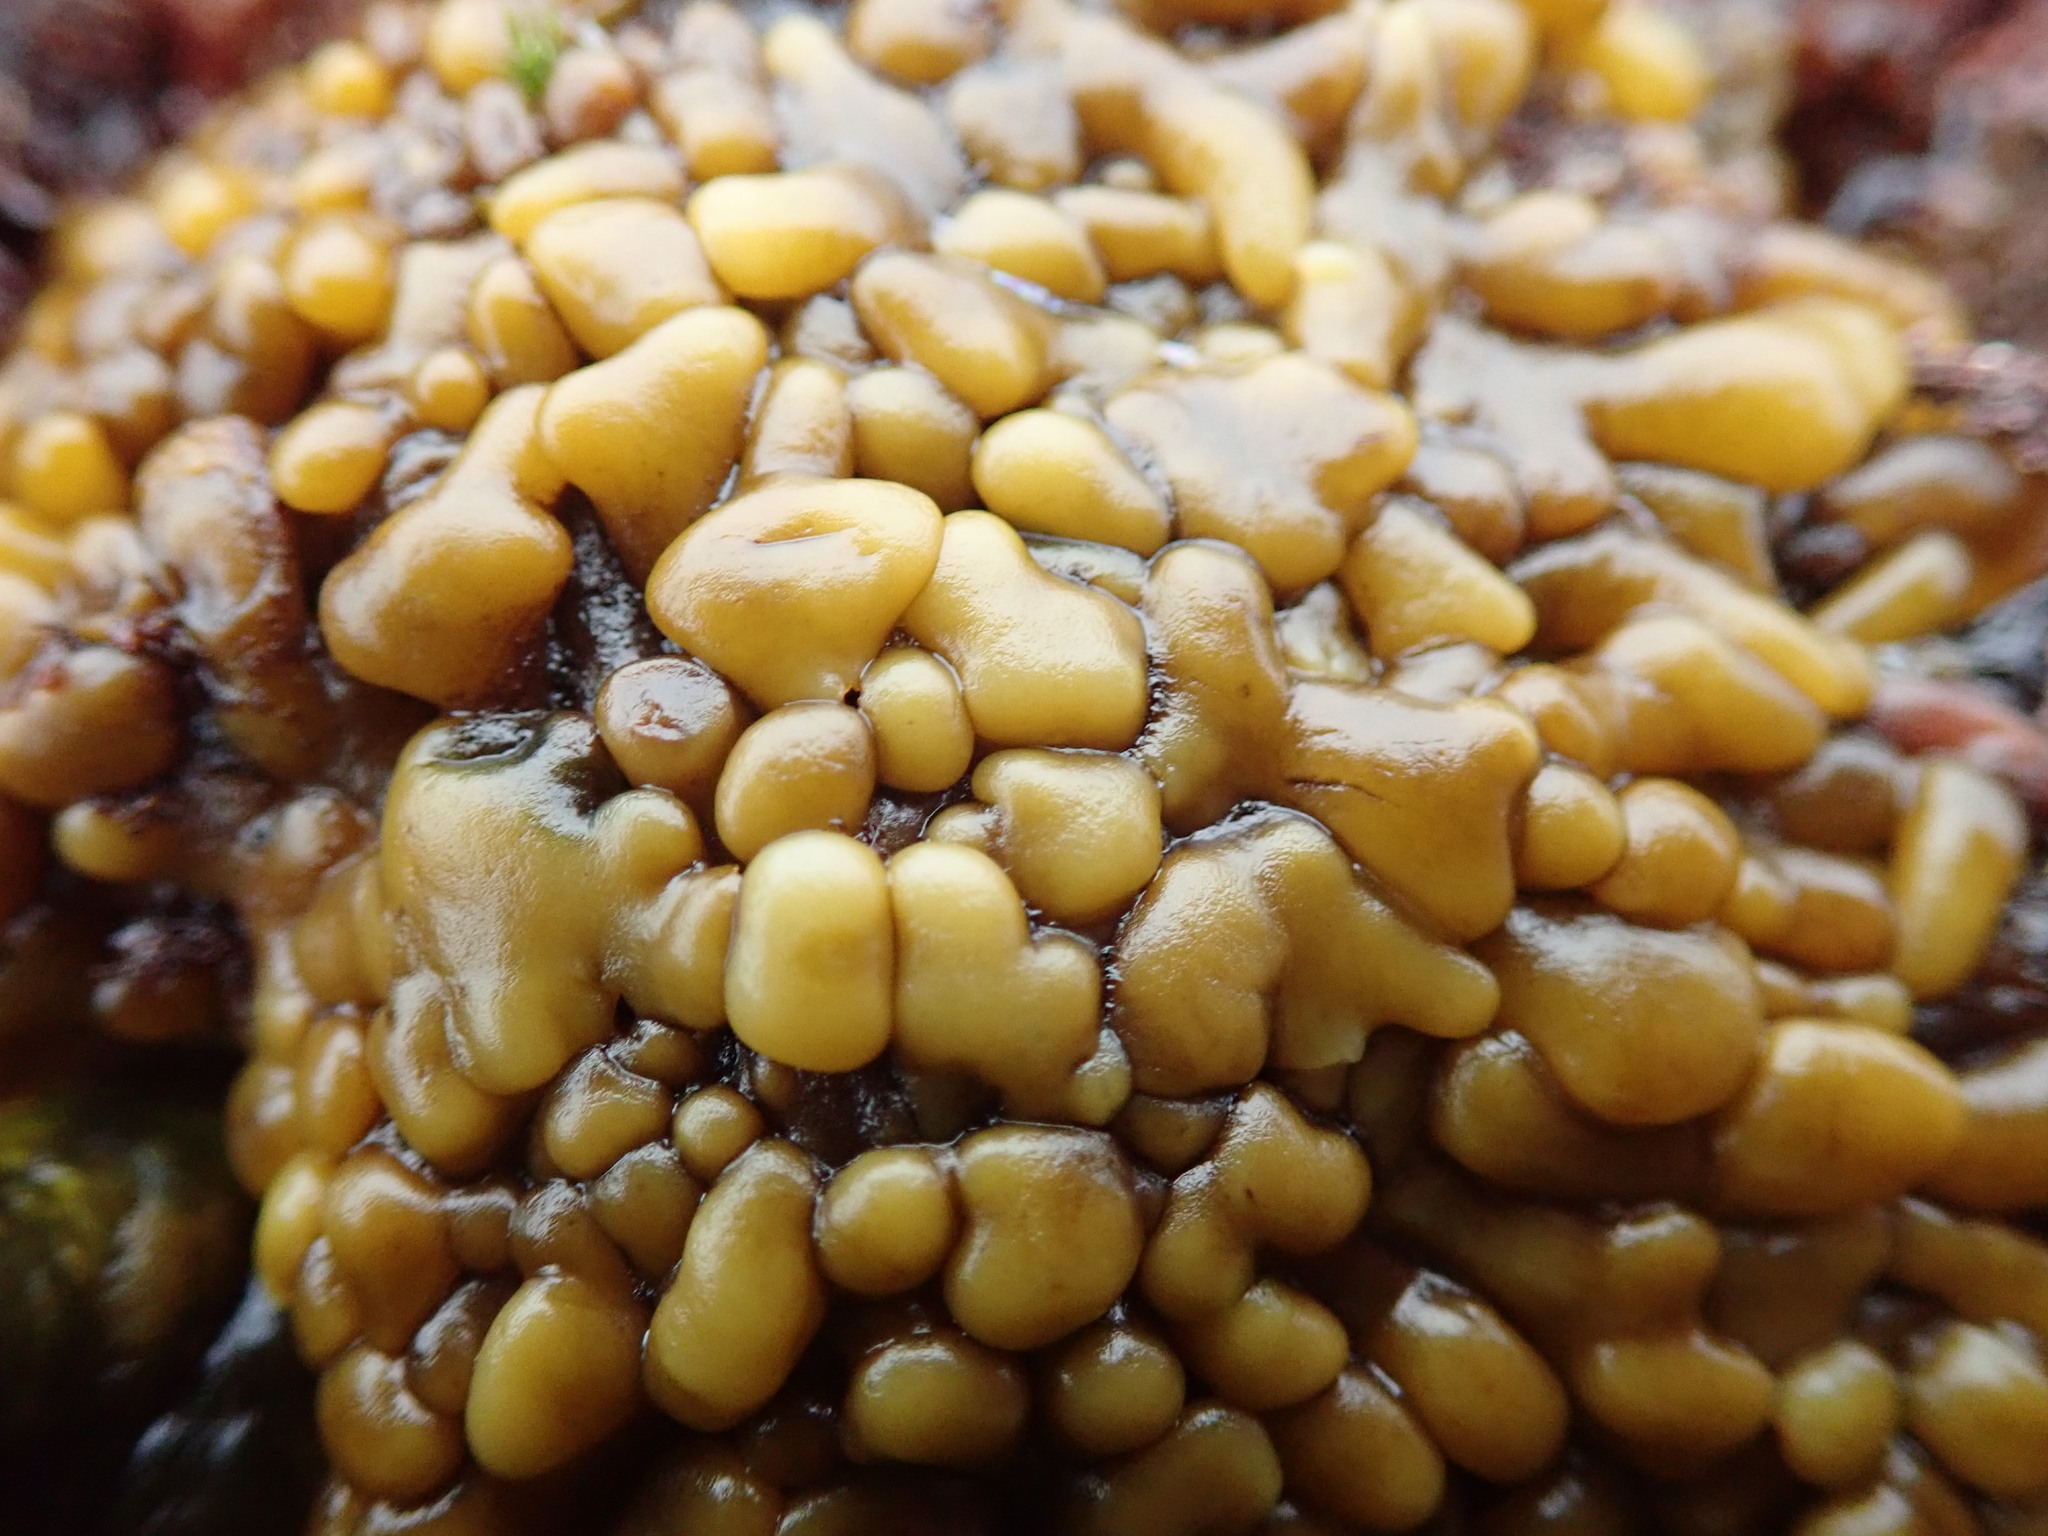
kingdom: Chromista
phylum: Ochrophyta
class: Phaeophyceae
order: Laminariales
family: Lessoniaceae
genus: Egregia
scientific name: Egregia menziesii
